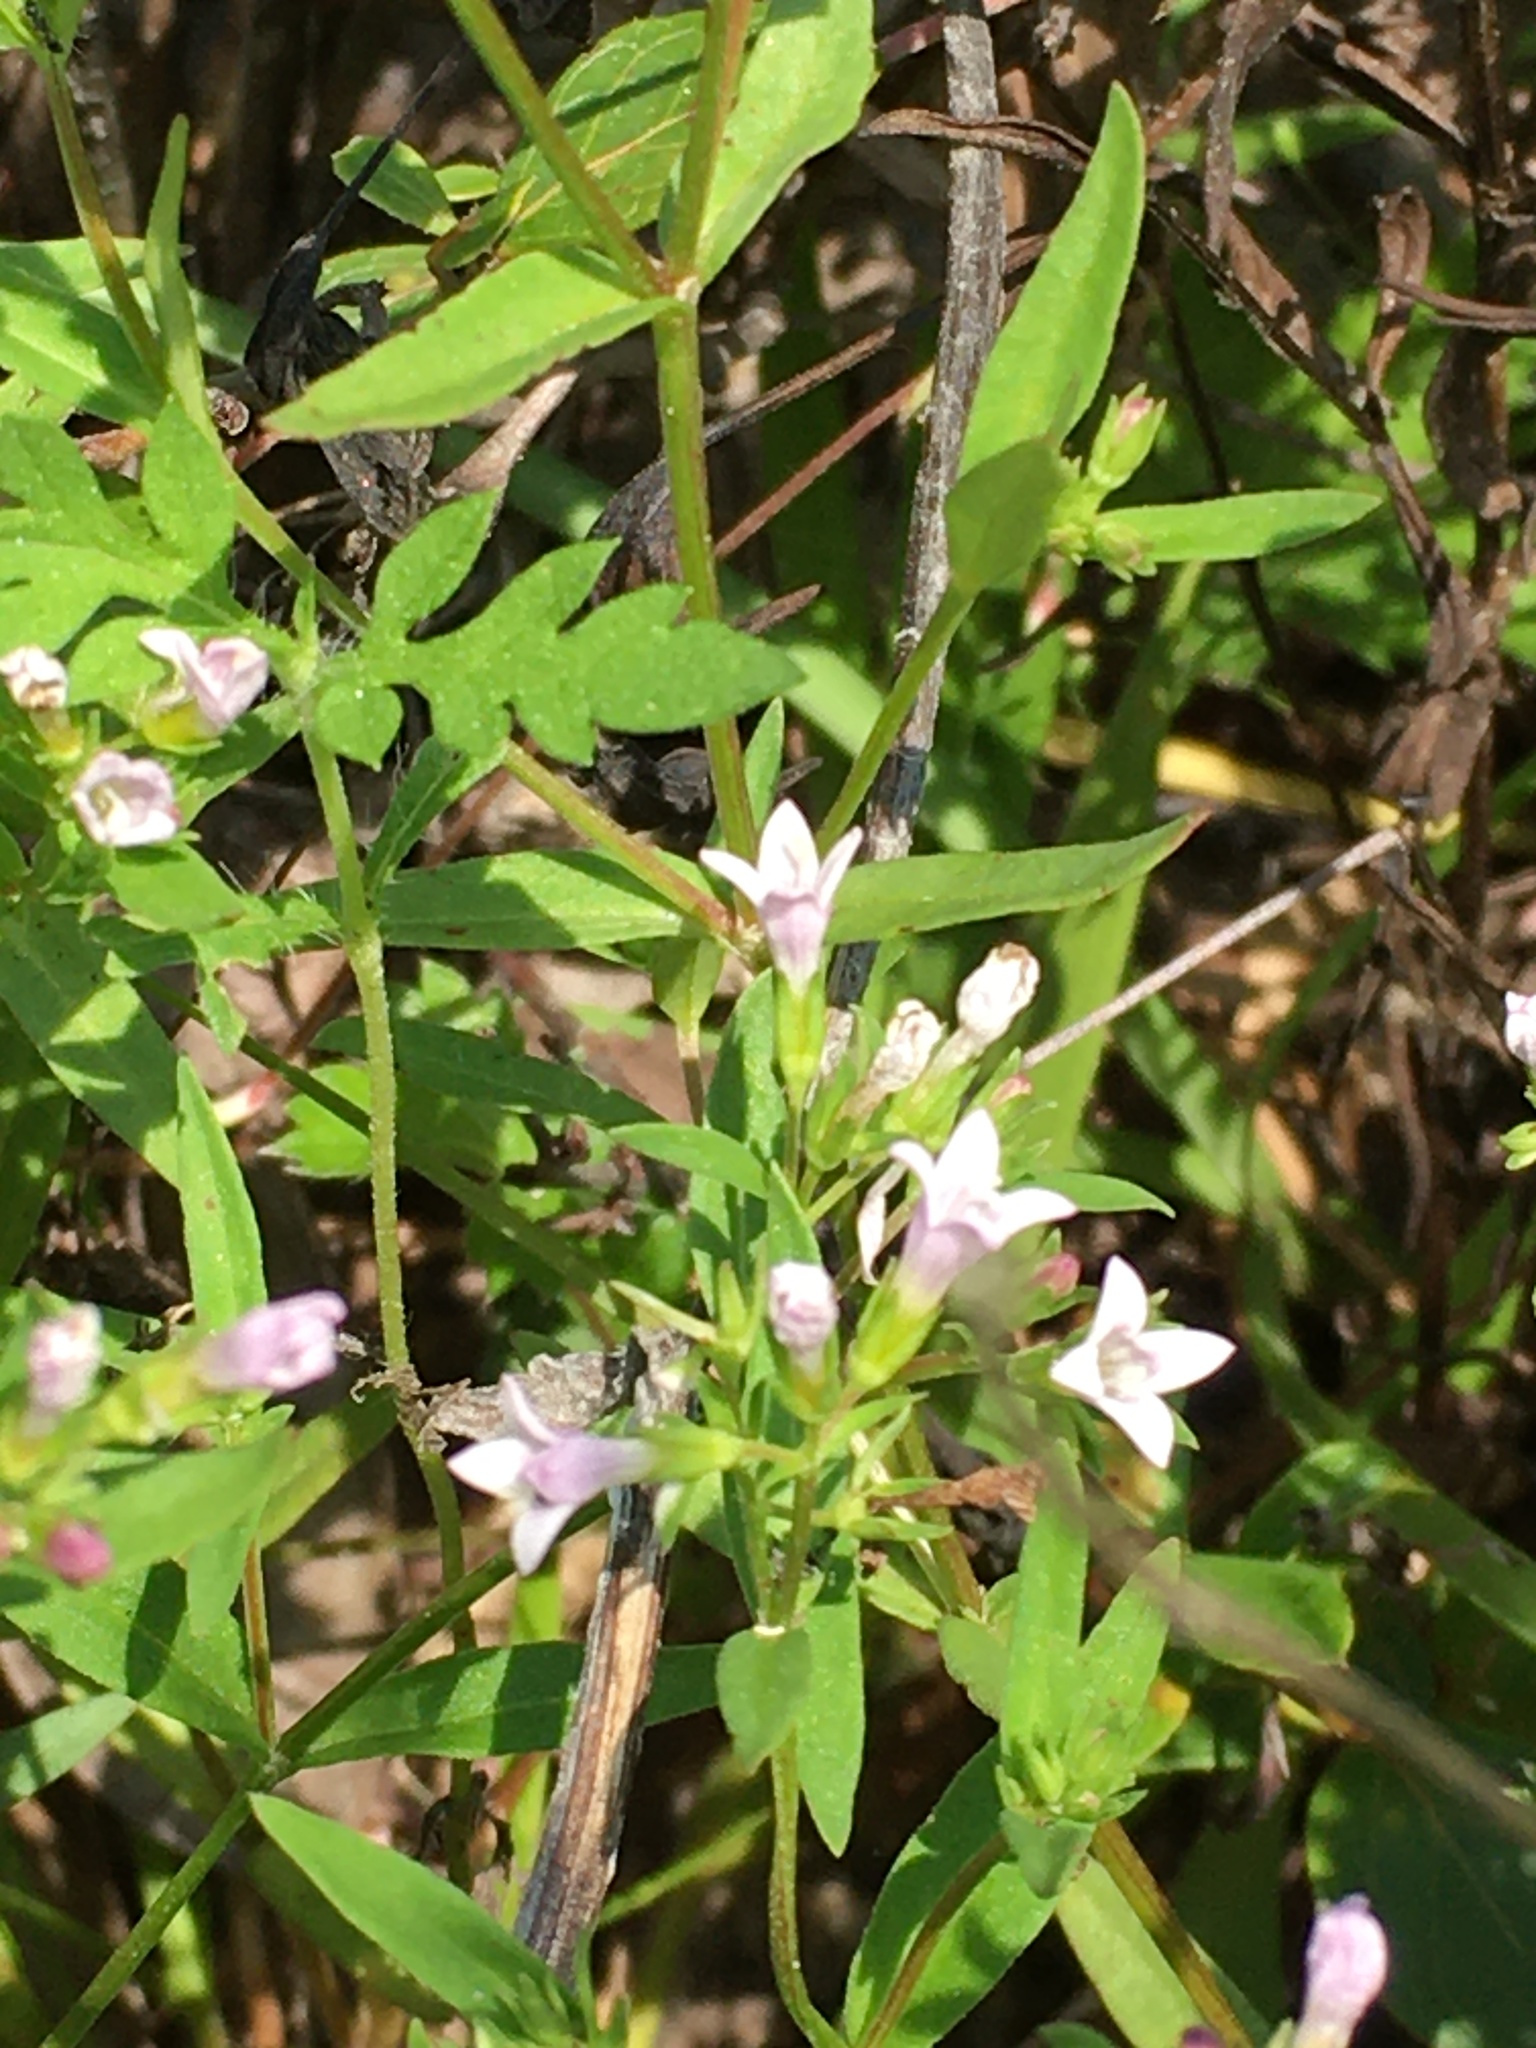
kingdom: Plantae
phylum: Tracheophyta
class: Magnoliopsida
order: Gentianales
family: Rubiaceae
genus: Houstonia
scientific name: Houstonia longifolia
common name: Long-leaved bluets
